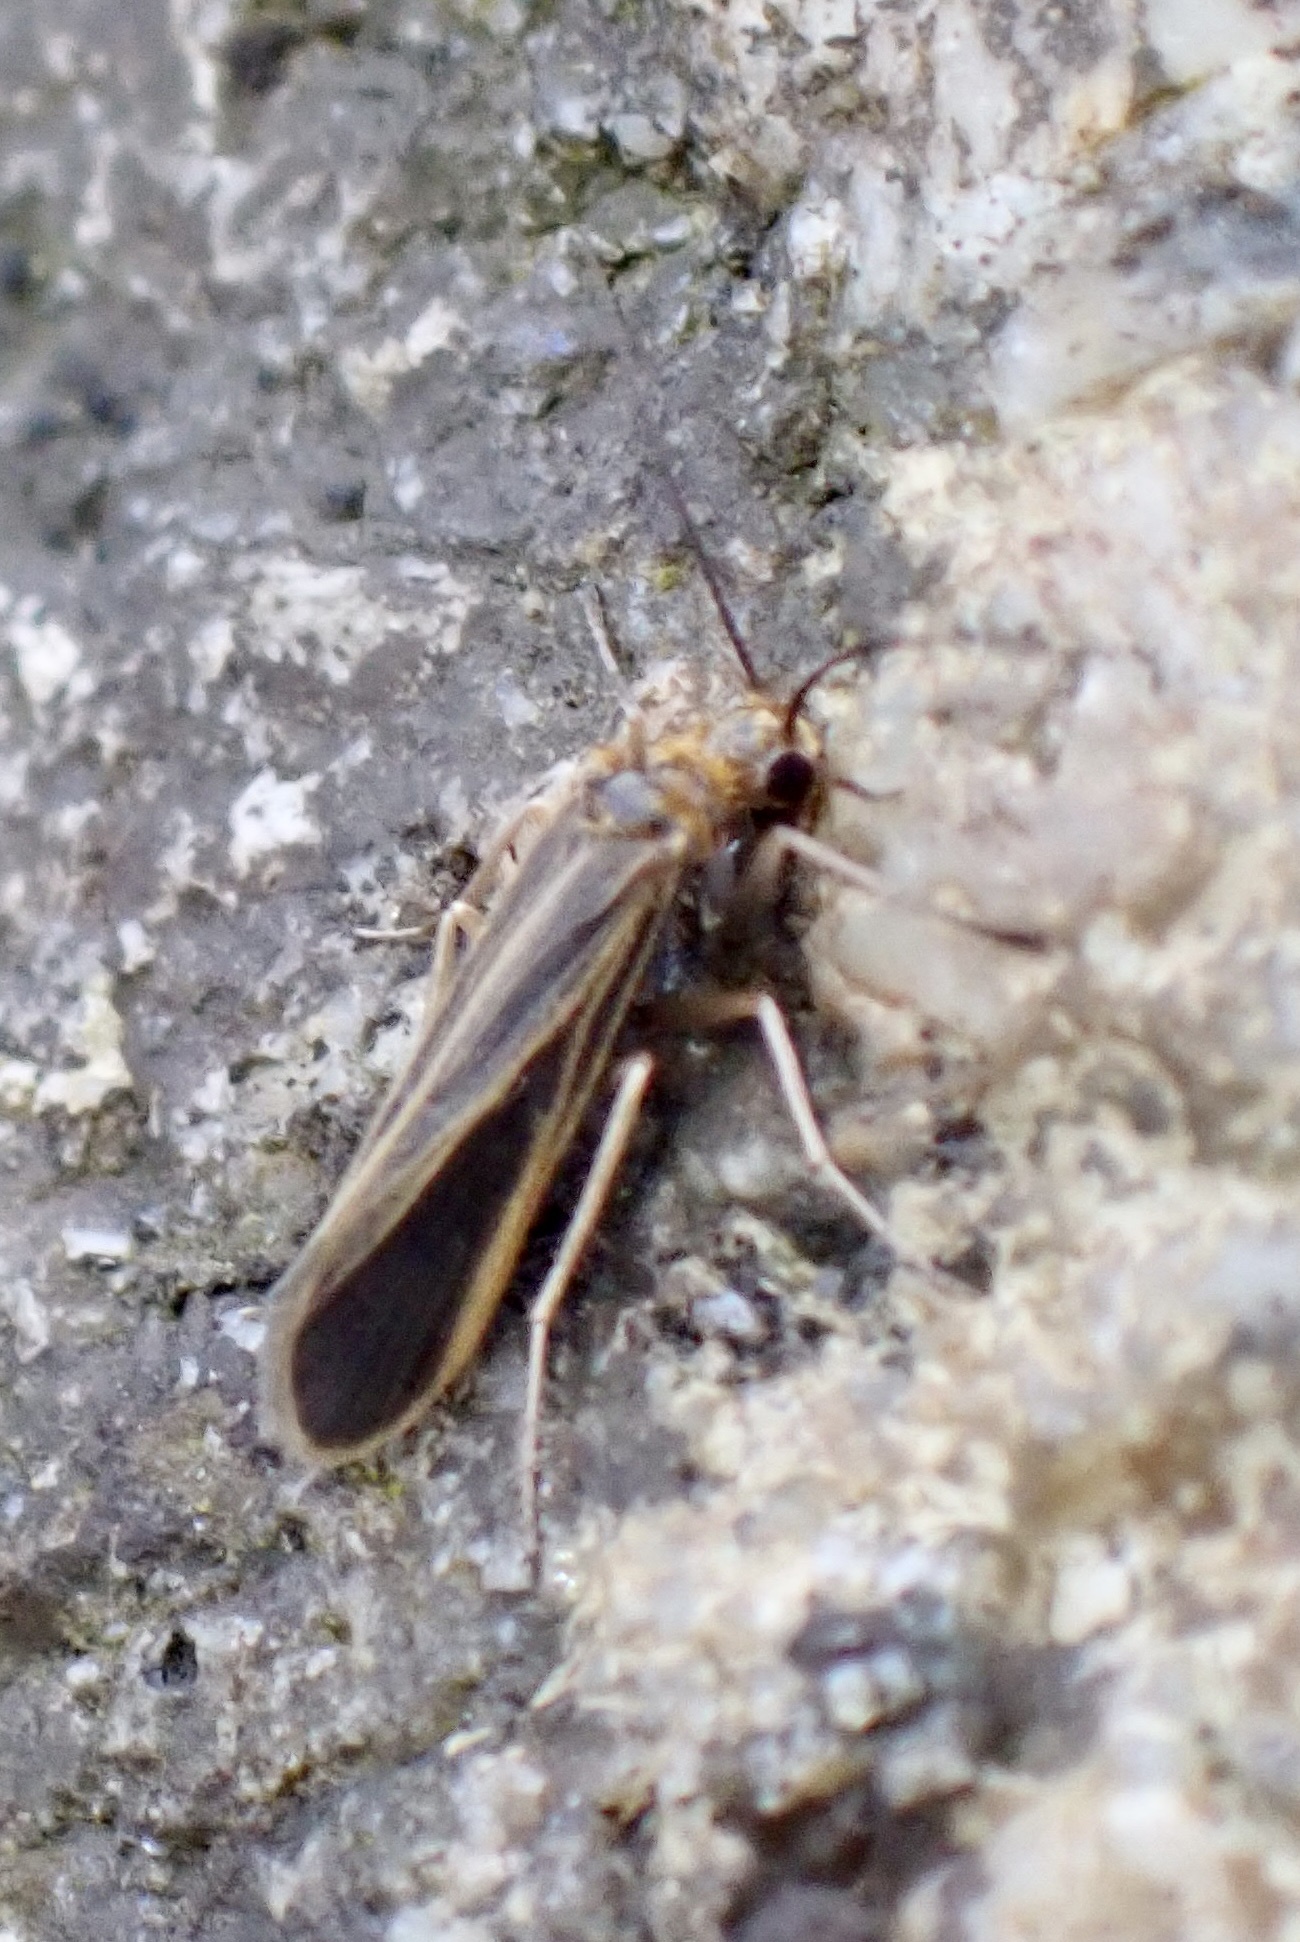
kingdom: Animalia
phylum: Arthropoda
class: Insecta
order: Trichoptera
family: Philopotamidae
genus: Chimarra
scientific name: Chimarra marginata
